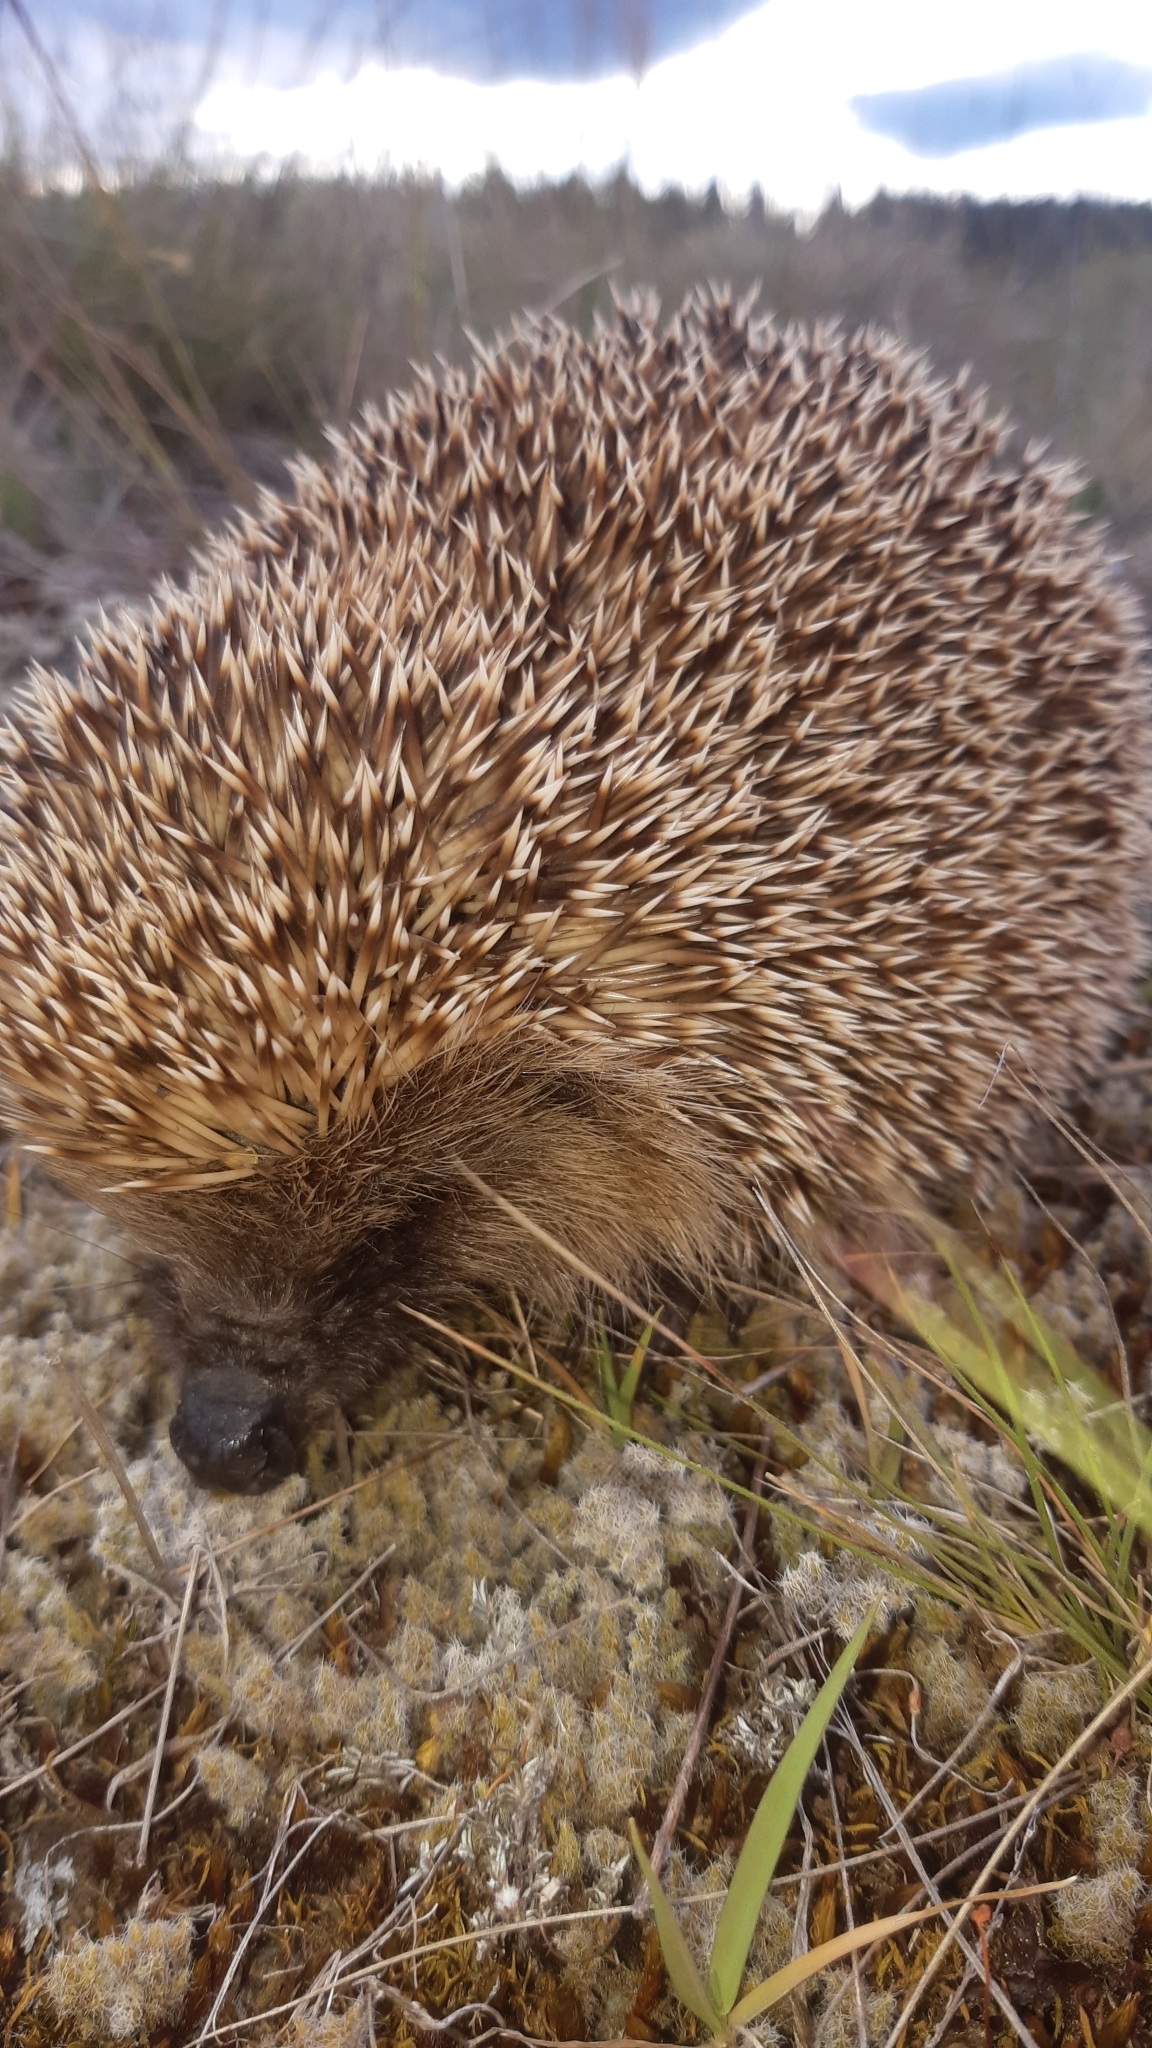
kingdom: Animalia
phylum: Chordata
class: Mammalia
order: Erinaceomorpha
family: Erinaceidae
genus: Erinaceus
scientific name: Erinaceus europaeus
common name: West european hedgehog
